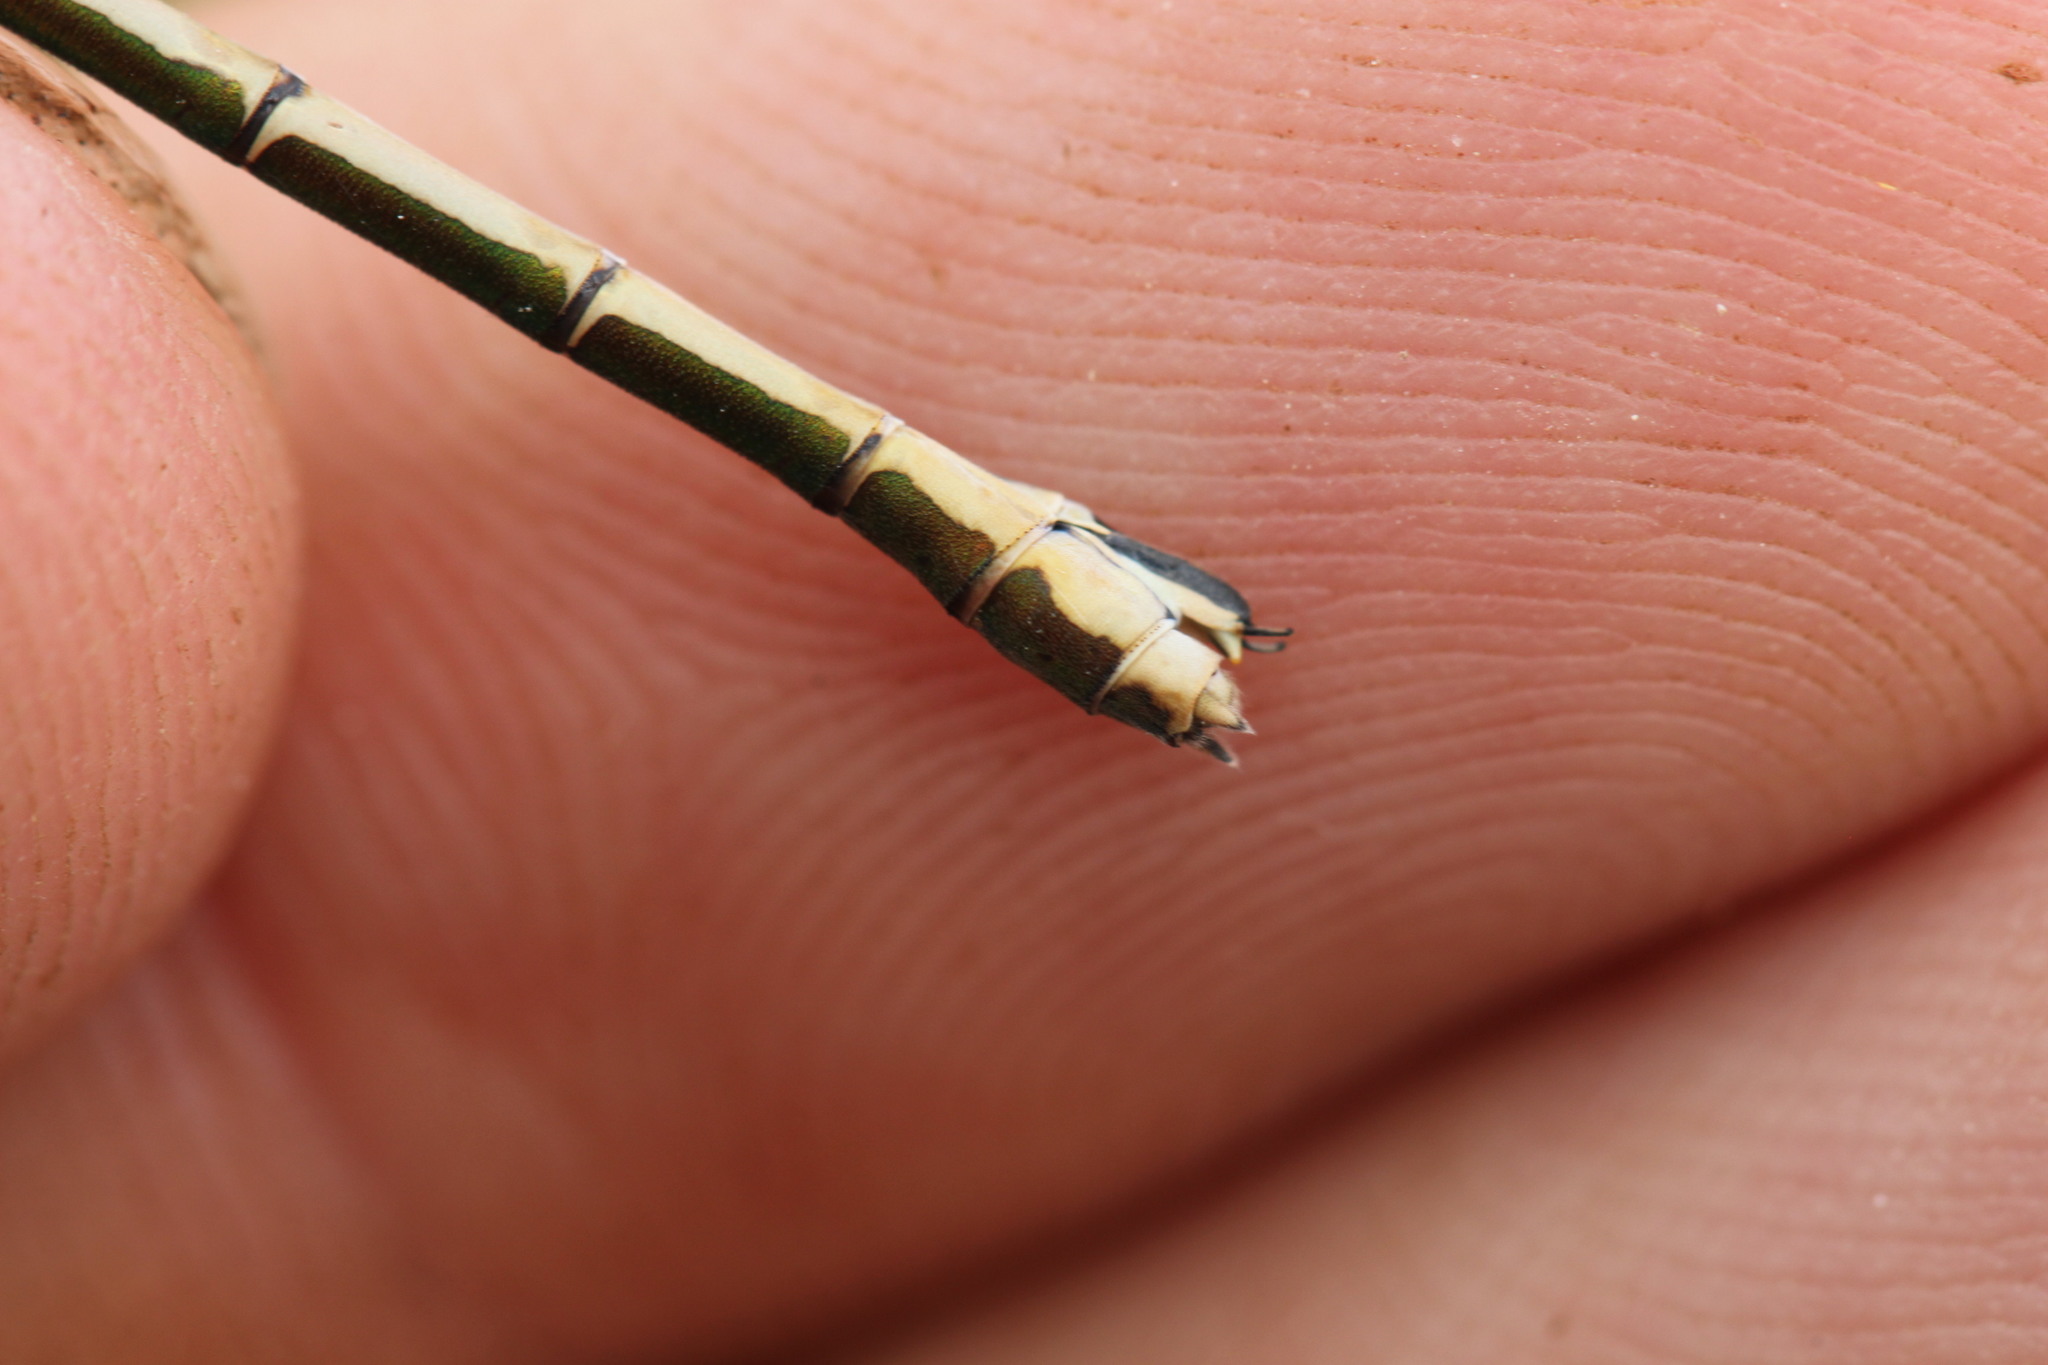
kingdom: Animalia
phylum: Arthropoda
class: Insecta
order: Odonata
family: Lestidae
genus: Lestes
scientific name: Lestes sponsa
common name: Common spreadwing
